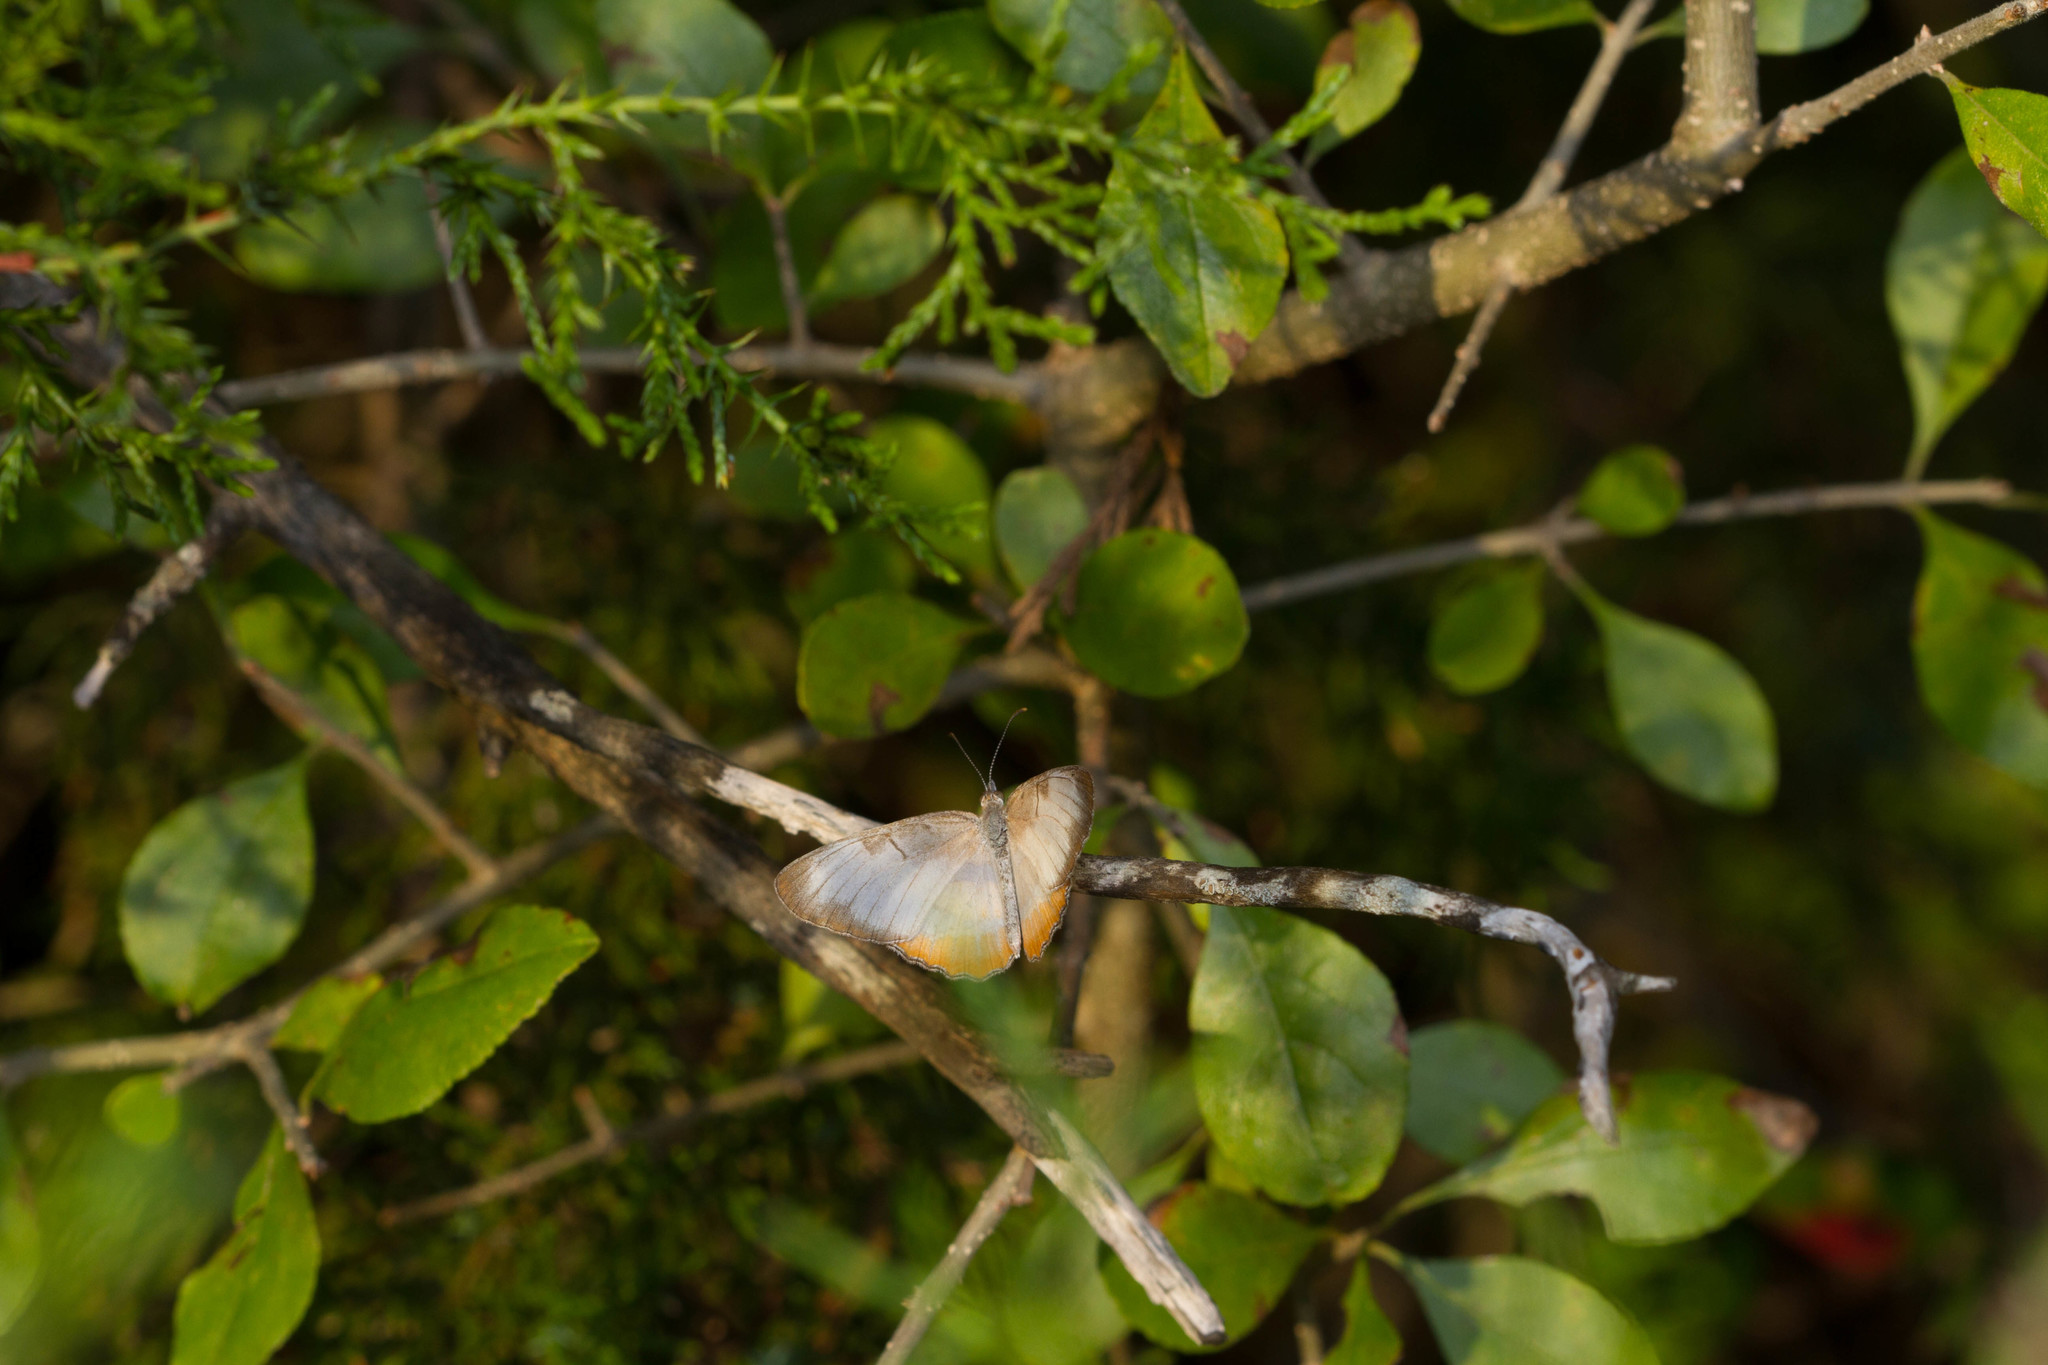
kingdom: Animalia
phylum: Arthropoda
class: Insecta
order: Lepidoptera
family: Nymphalidae
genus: Mestra
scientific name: Mestra amymone
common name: Common mestra
